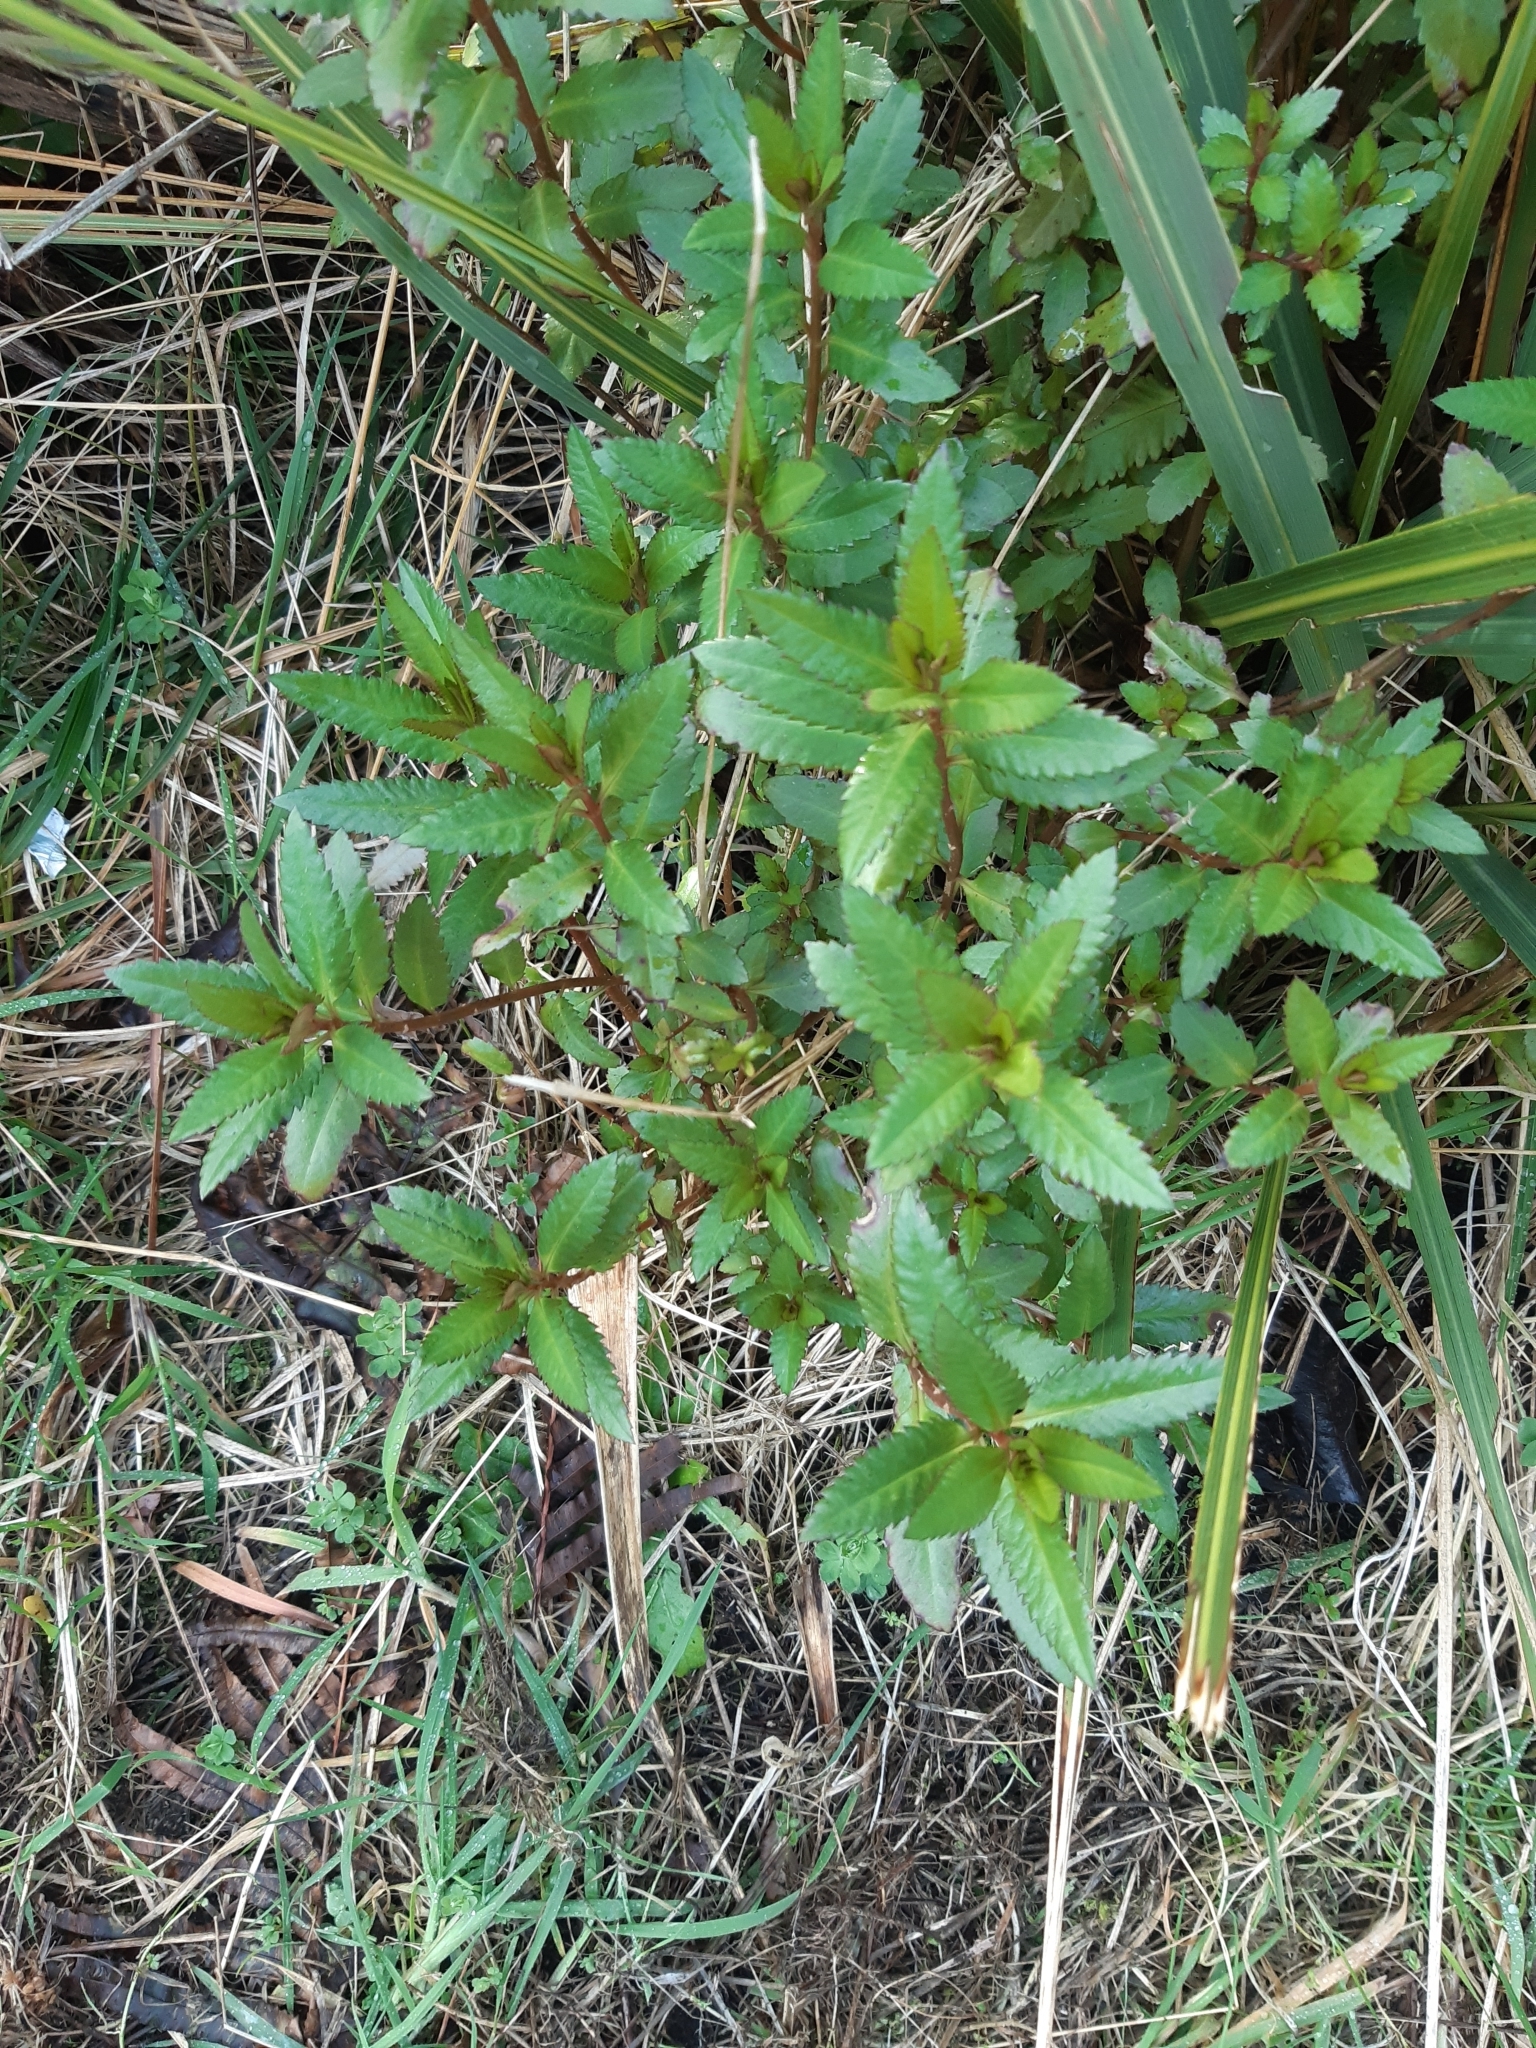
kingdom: Plantae
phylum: Tracheophyta
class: Magnoliopsida
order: Saxifragales
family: Haloragaceae
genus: Haloragis
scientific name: Haloragis erecta
